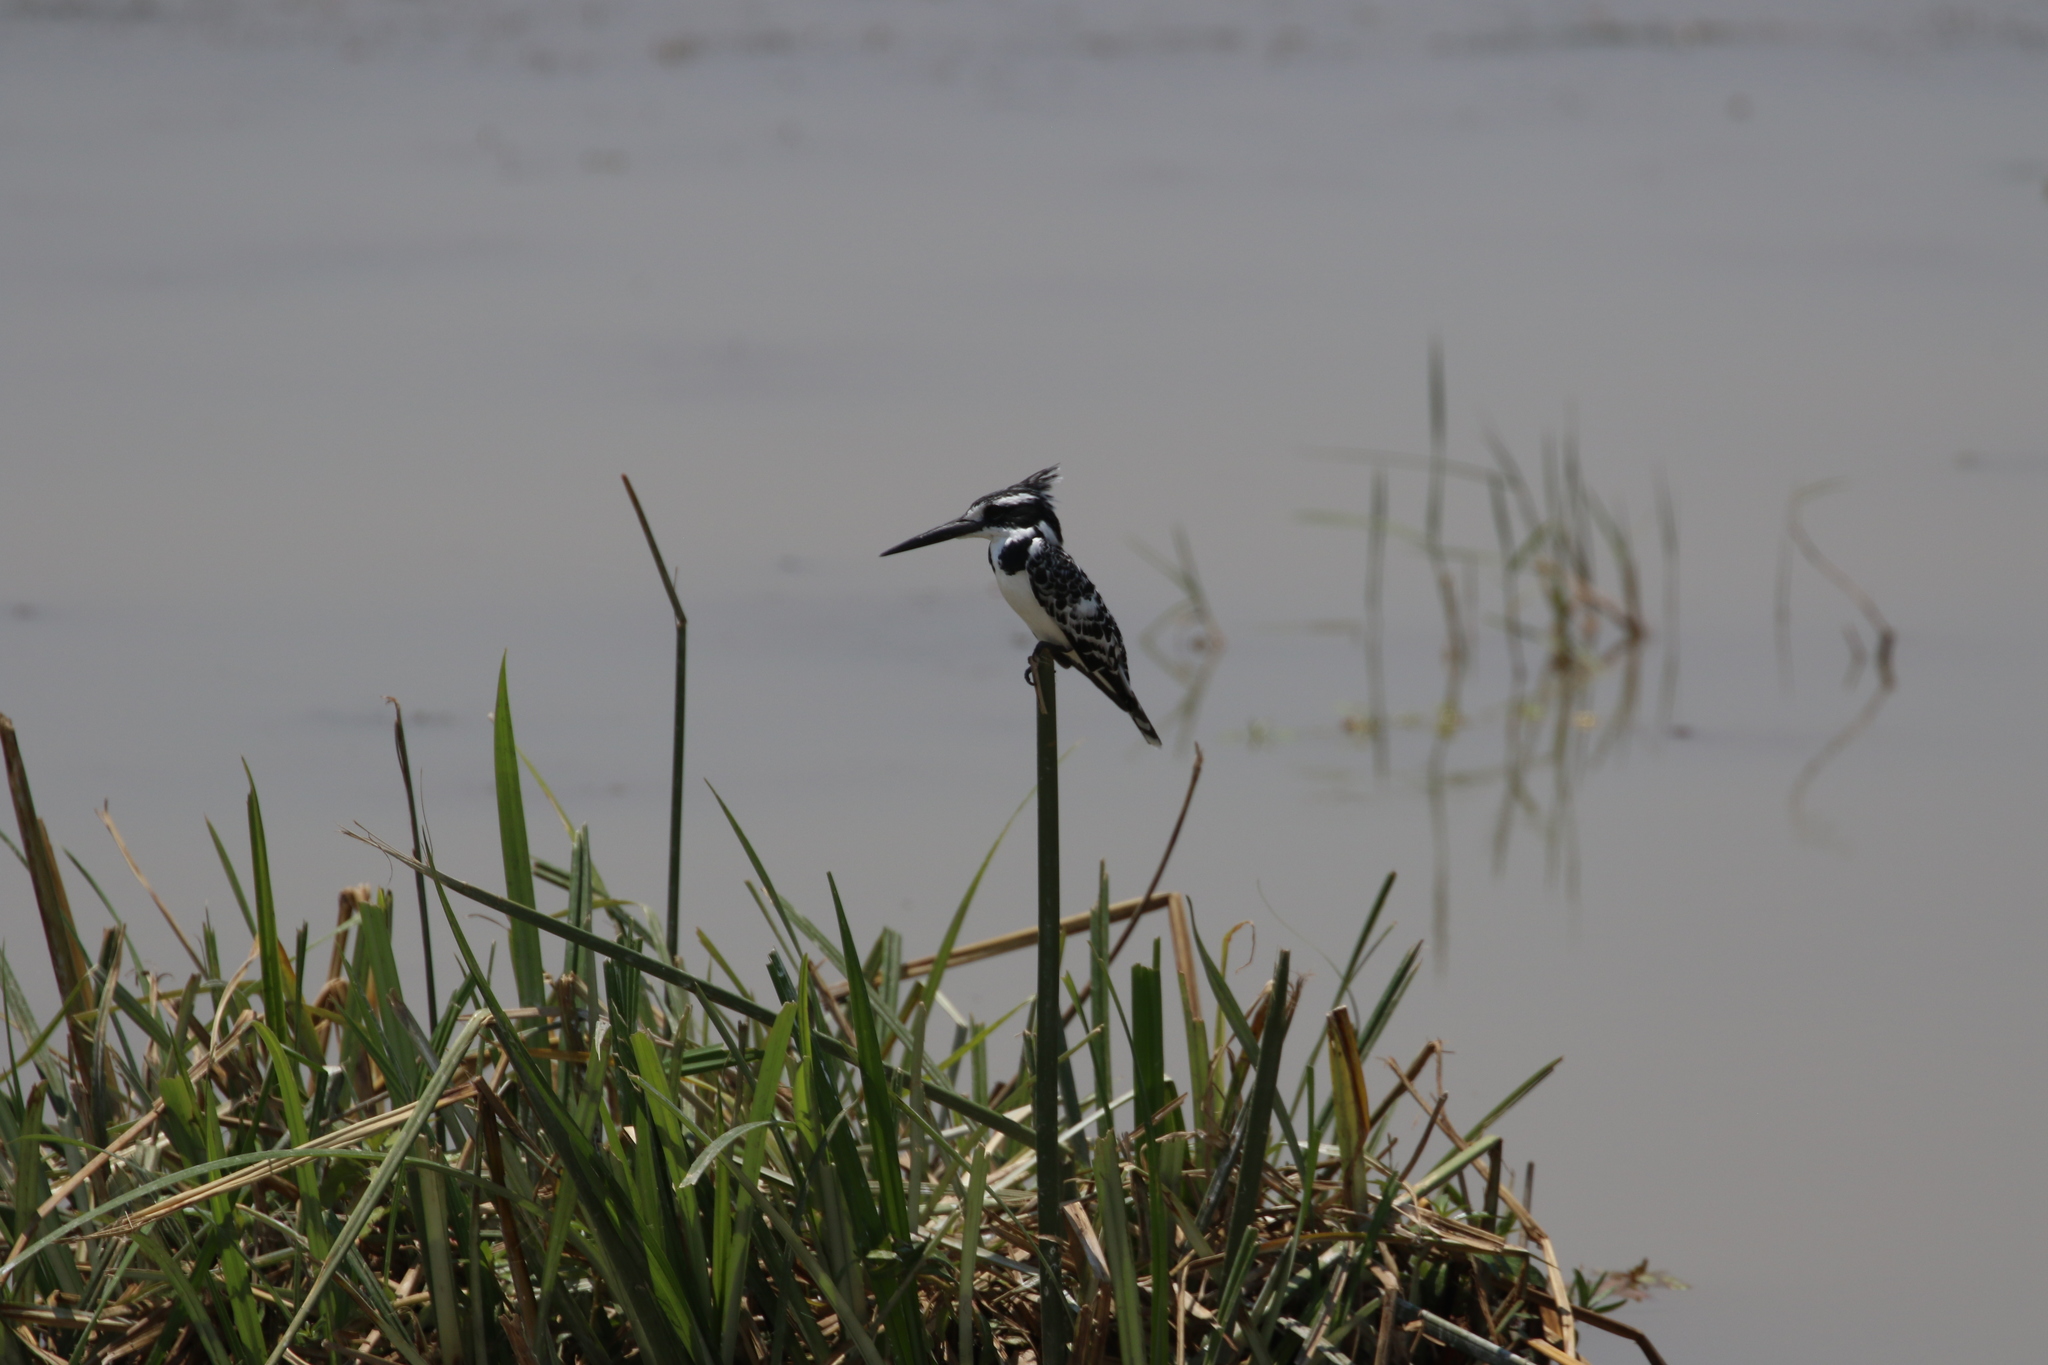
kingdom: Animalia
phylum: Chordata
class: Aves
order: Coraciiformes
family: Alcedinidae
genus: Ceryle
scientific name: Ceryle rudis
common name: Pied kingfisher
